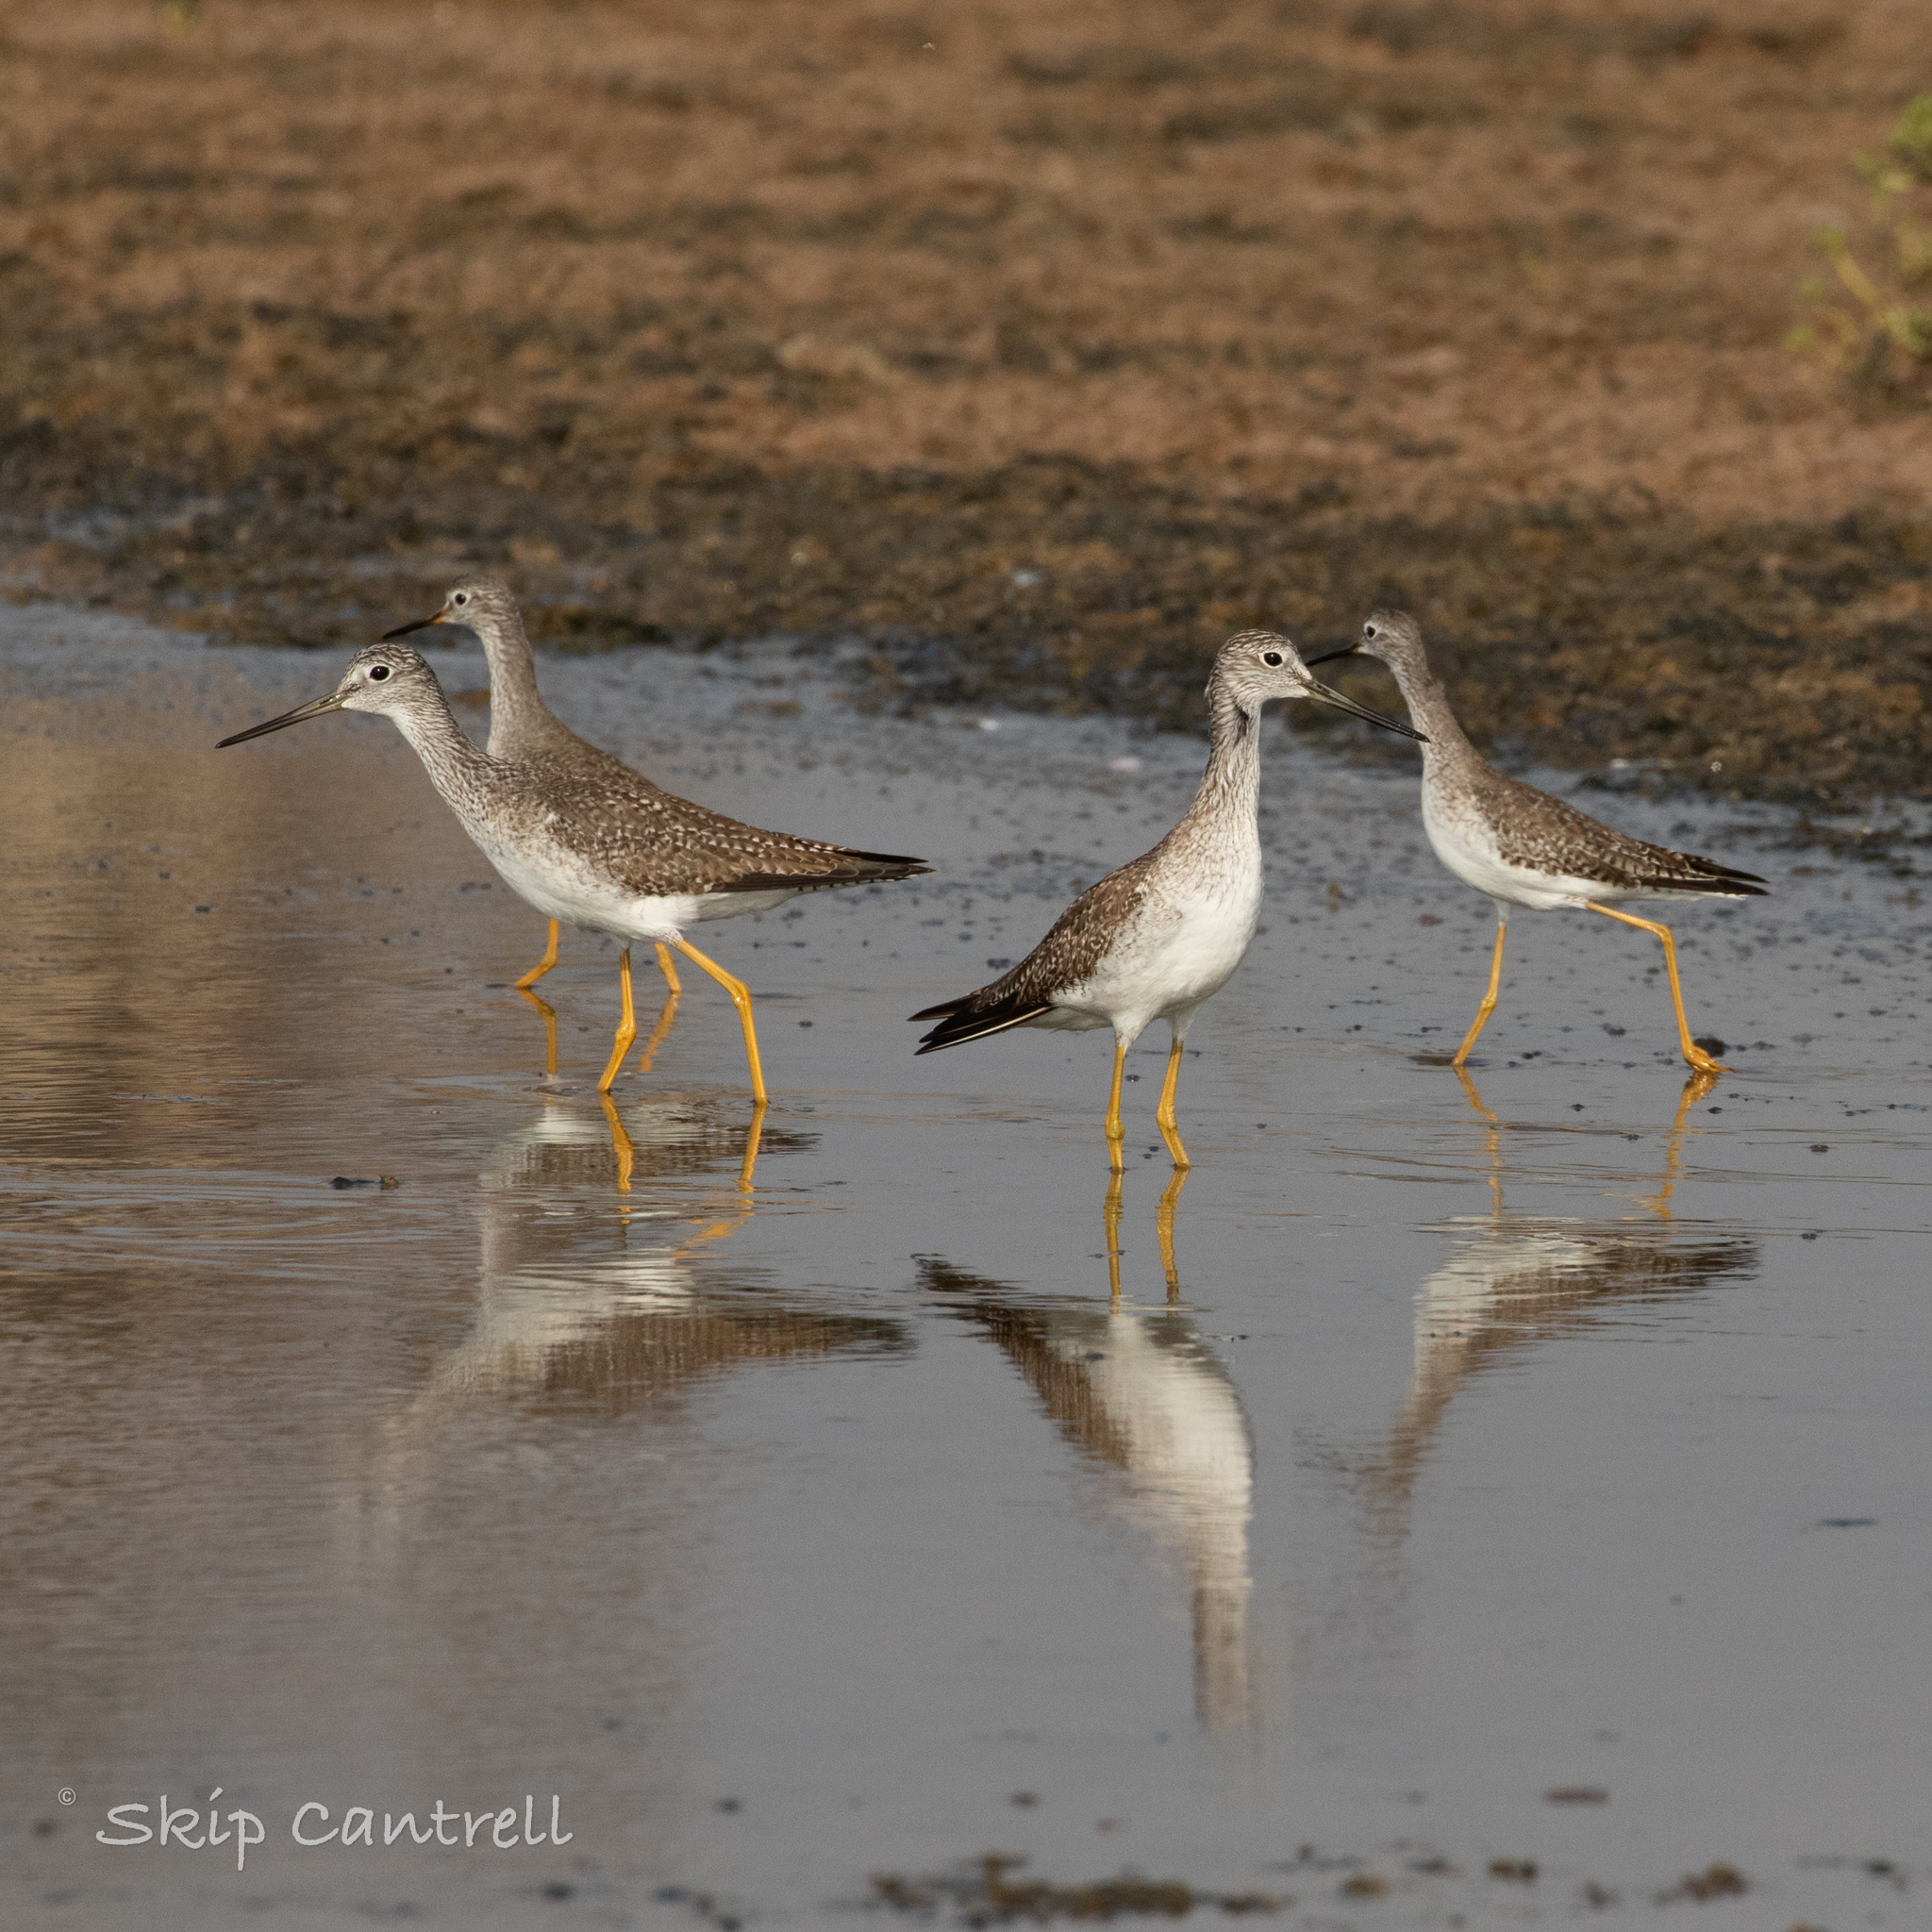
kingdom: Animalia
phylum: Chordata
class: Aves
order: Charadriiformes
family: Scolopacidae
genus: Tringa
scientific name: Tringa melanoleuca
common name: Greater yellowlegs
